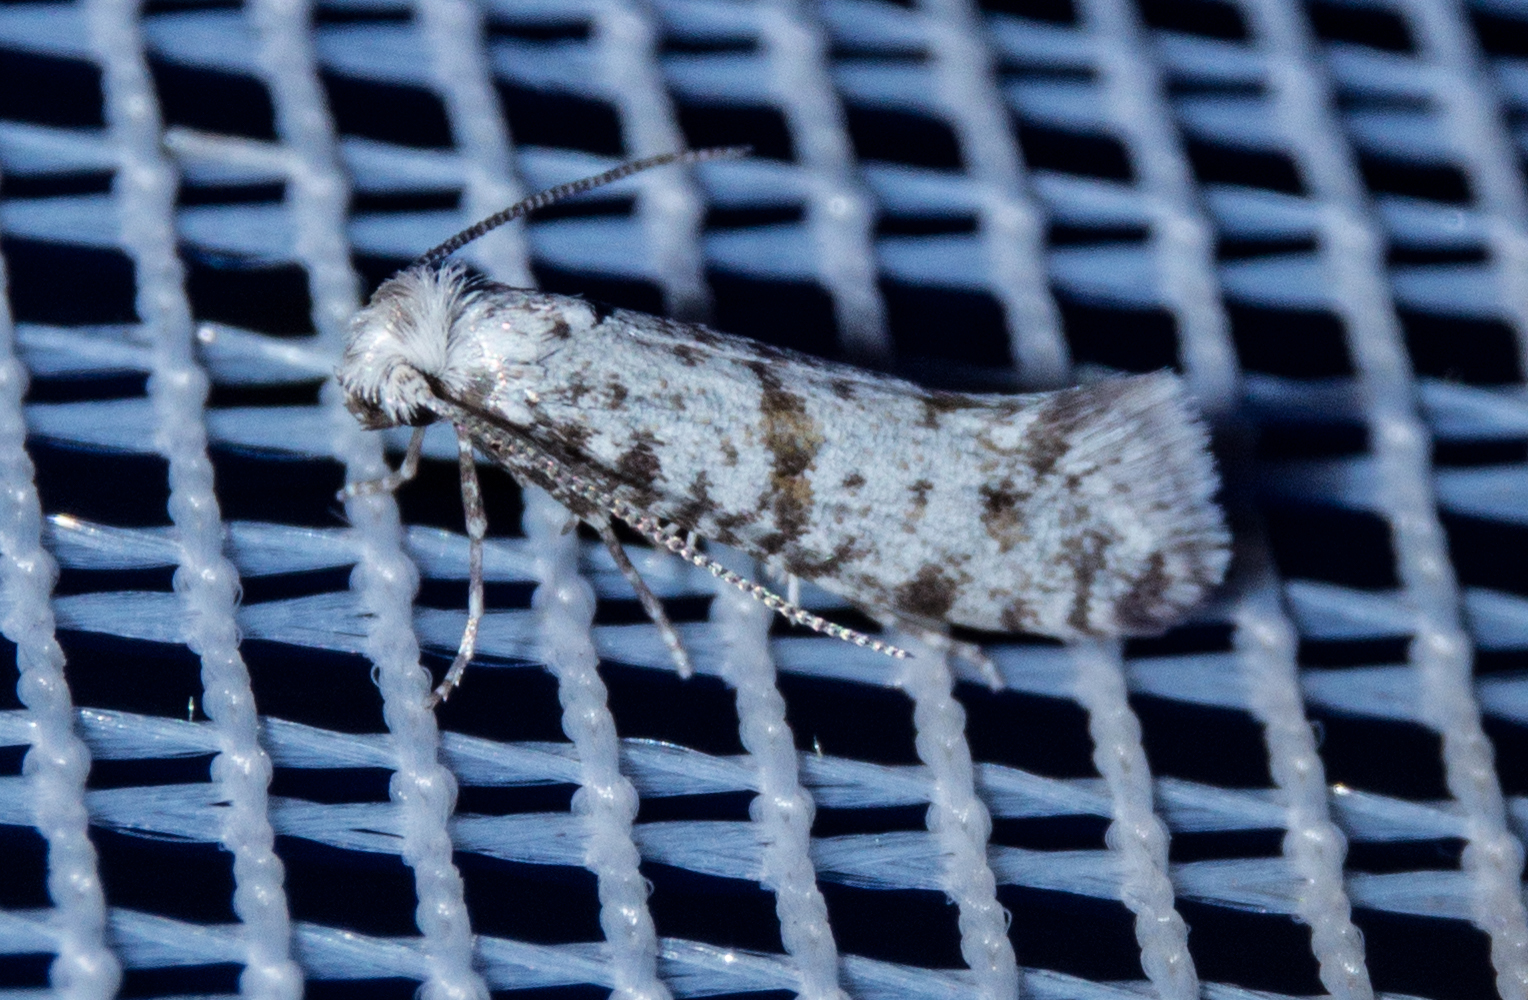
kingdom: Animalia
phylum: Arthropoda
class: Insecta
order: Lepidoptera
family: Yponomeutidae
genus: Scythropia
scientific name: Scythropia crataegella
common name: Hawthorn moth
